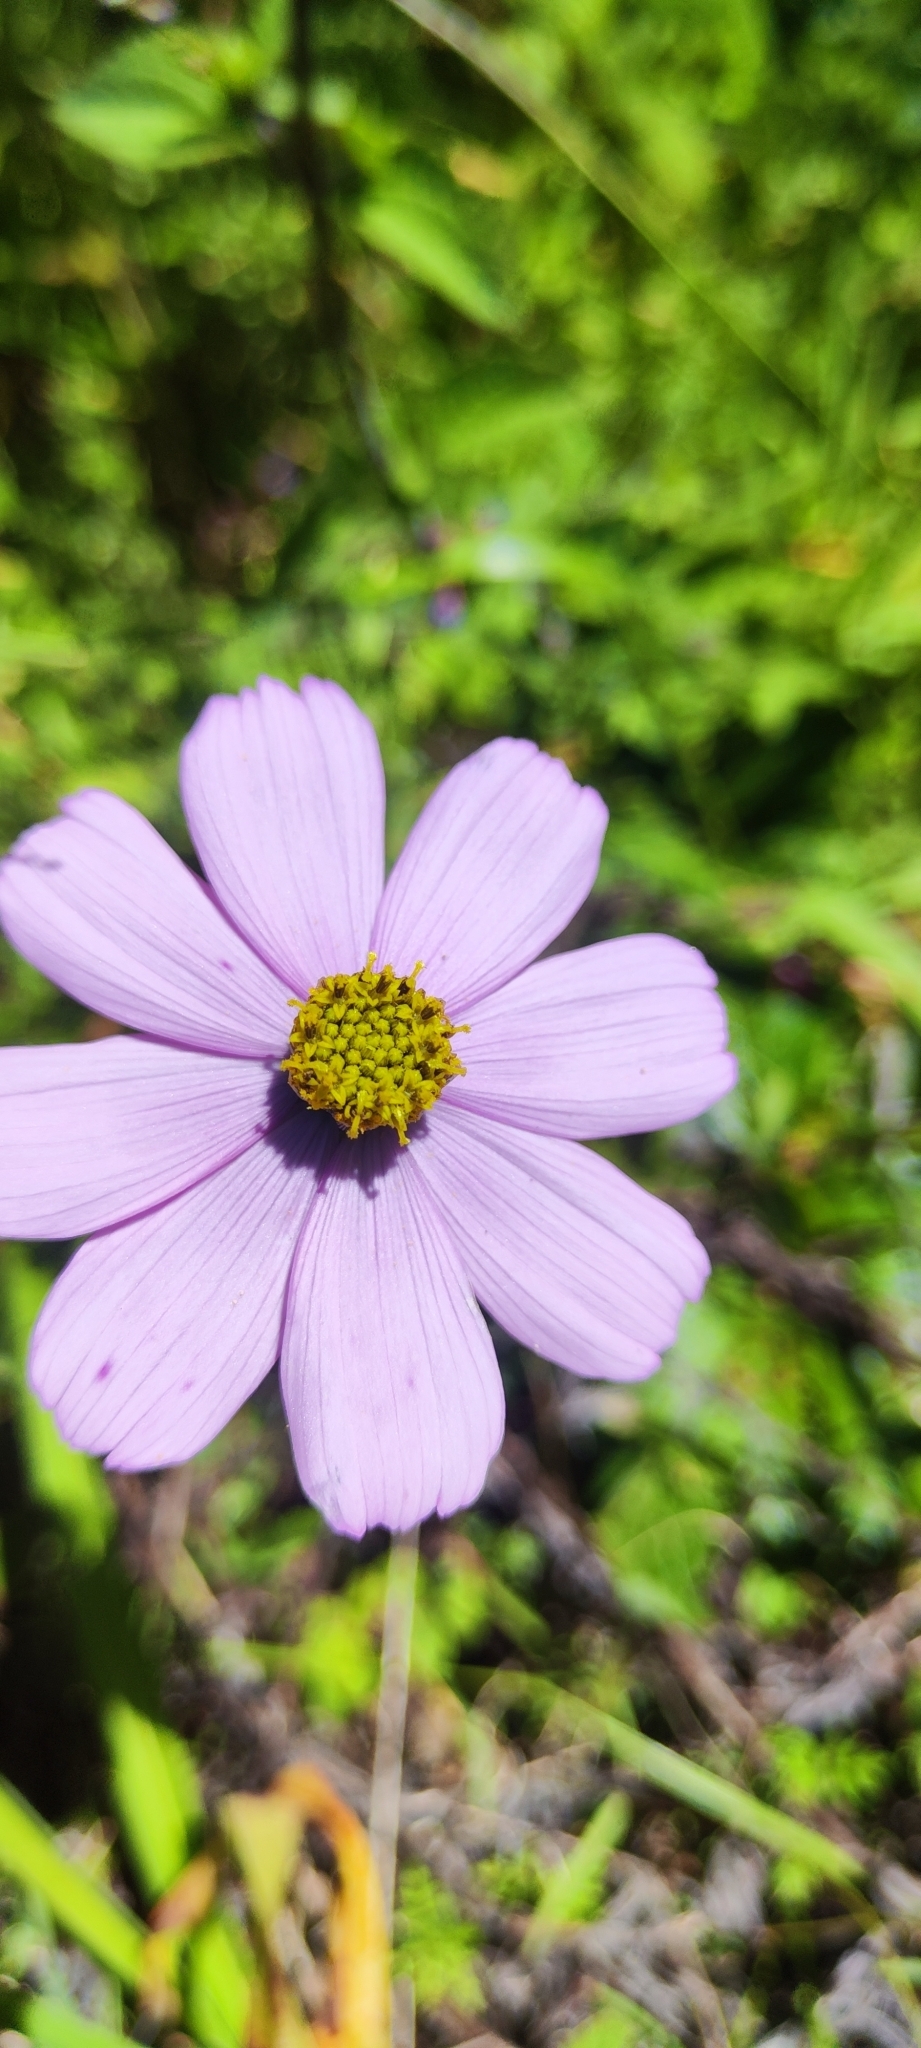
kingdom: Plantae
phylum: Tracheophyta
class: Magnoliopsida
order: Asterales
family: Asteraceae
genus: Cosmos
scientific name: Cosmos peucedanifolius
